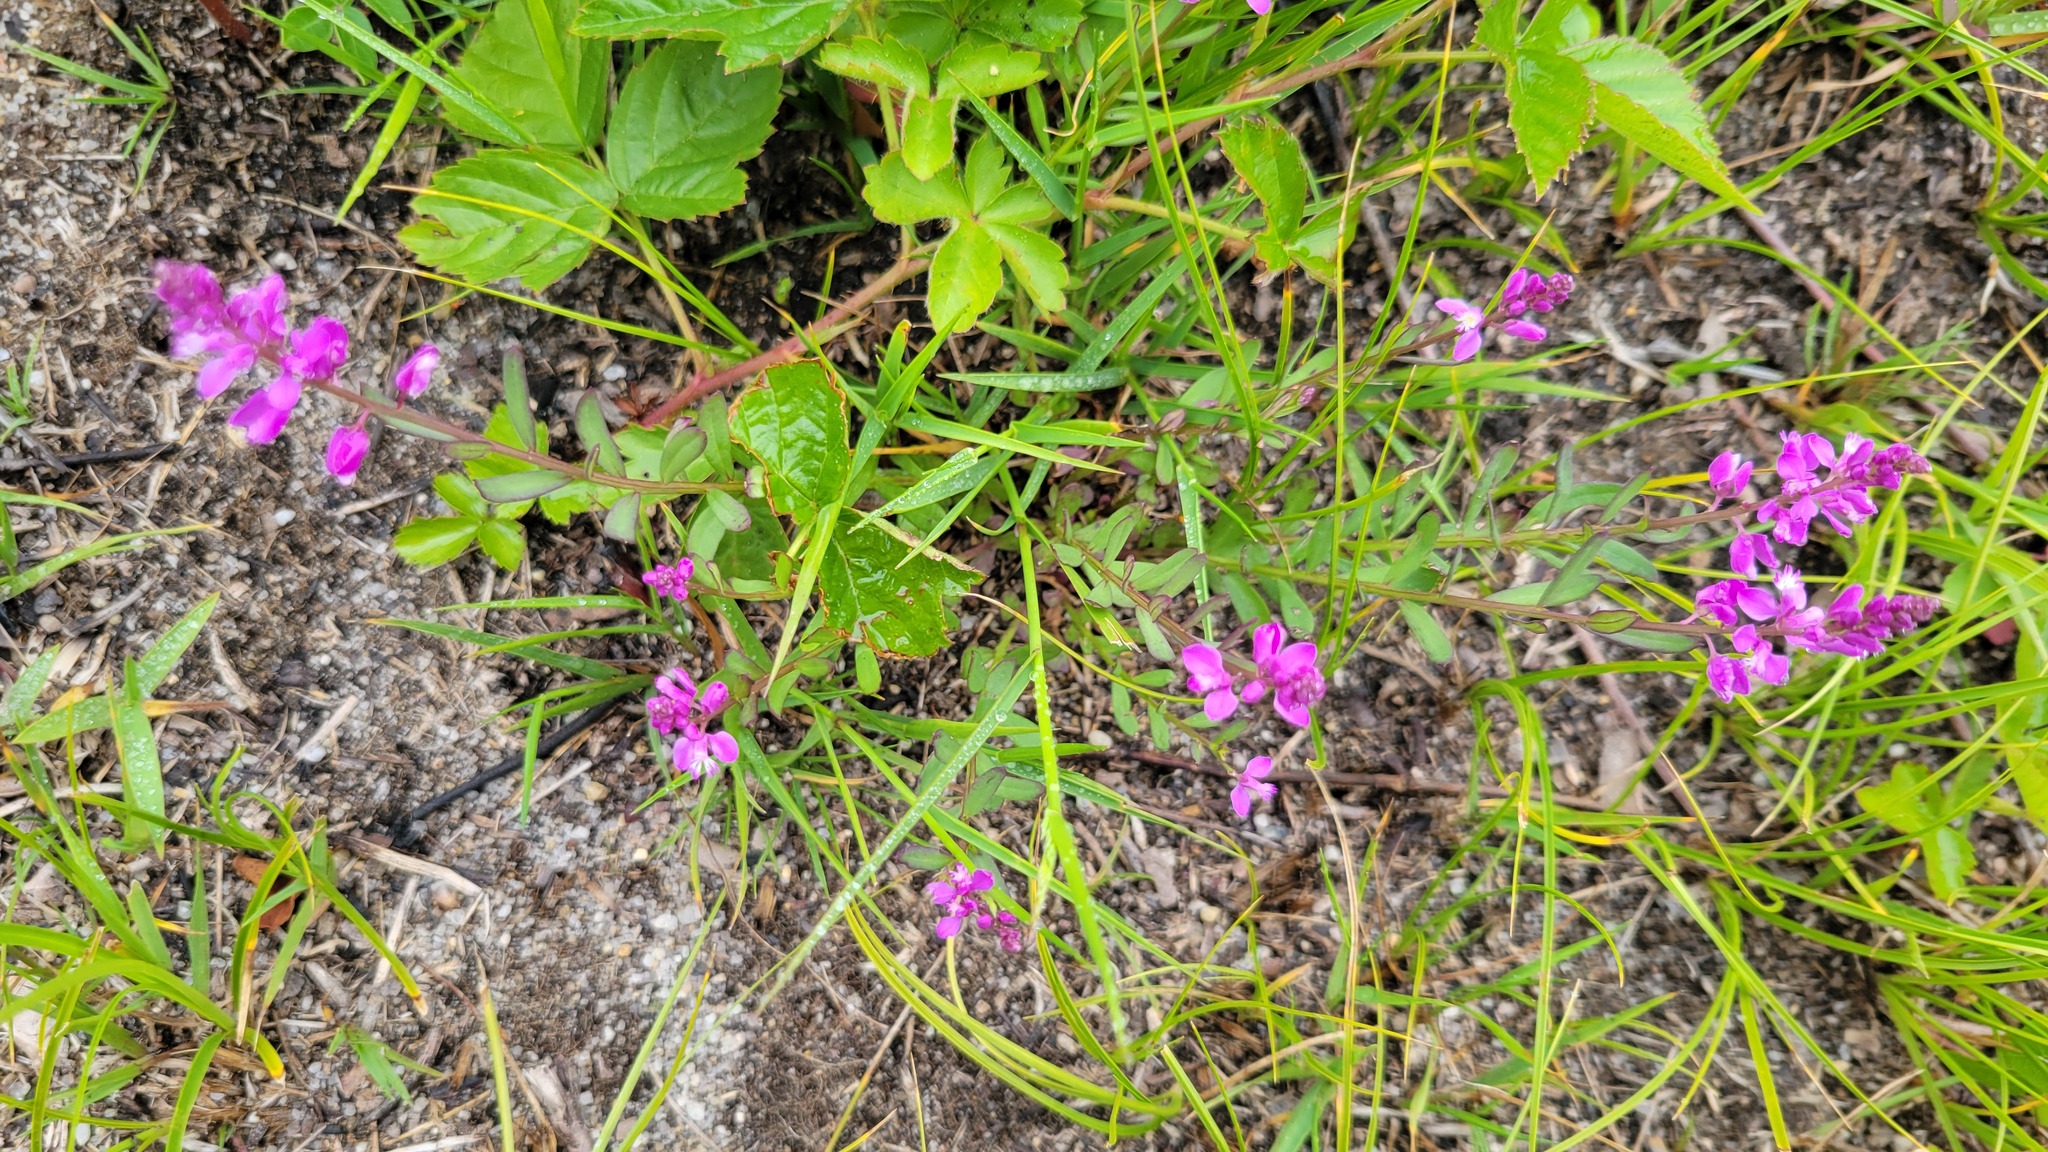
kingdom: Plantae
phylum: Tracheophyta
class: Magnoliopsida
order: Fabales
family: Polygalaceae
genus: Polygala
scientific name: Polygala polygama
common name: Bitter milkwort
